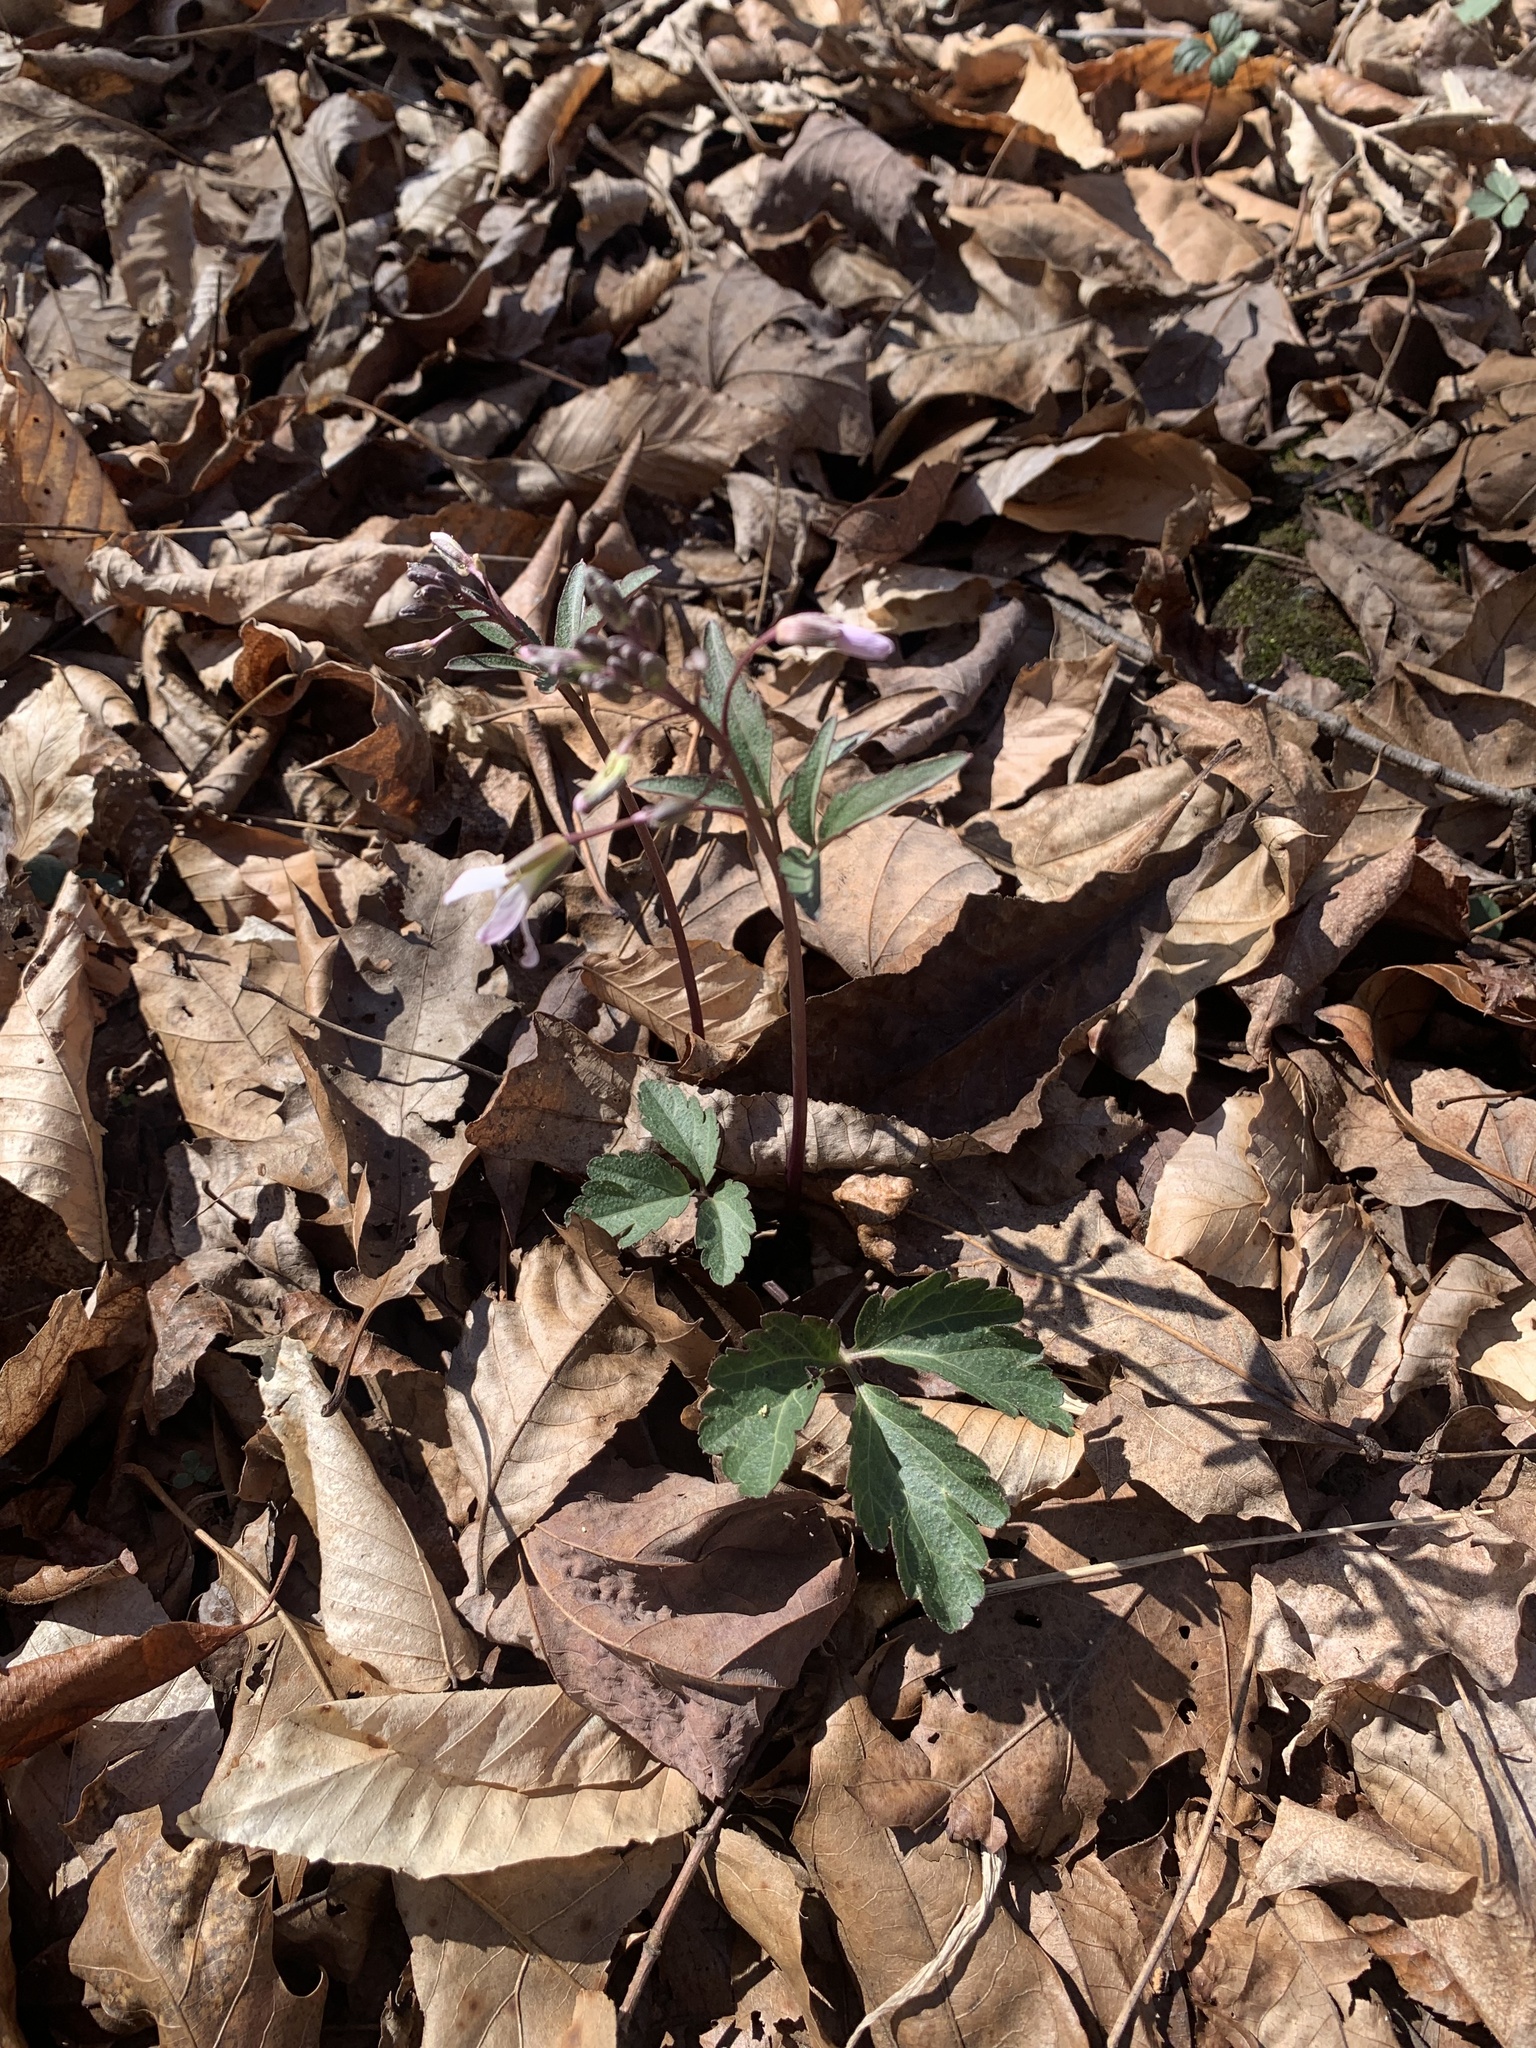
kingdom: Plantae
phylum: Tracheophyta
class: Magnoliopsida
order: Brassicales
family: Brassicaceae
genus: Cardamine
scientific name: Cardamine angustata
